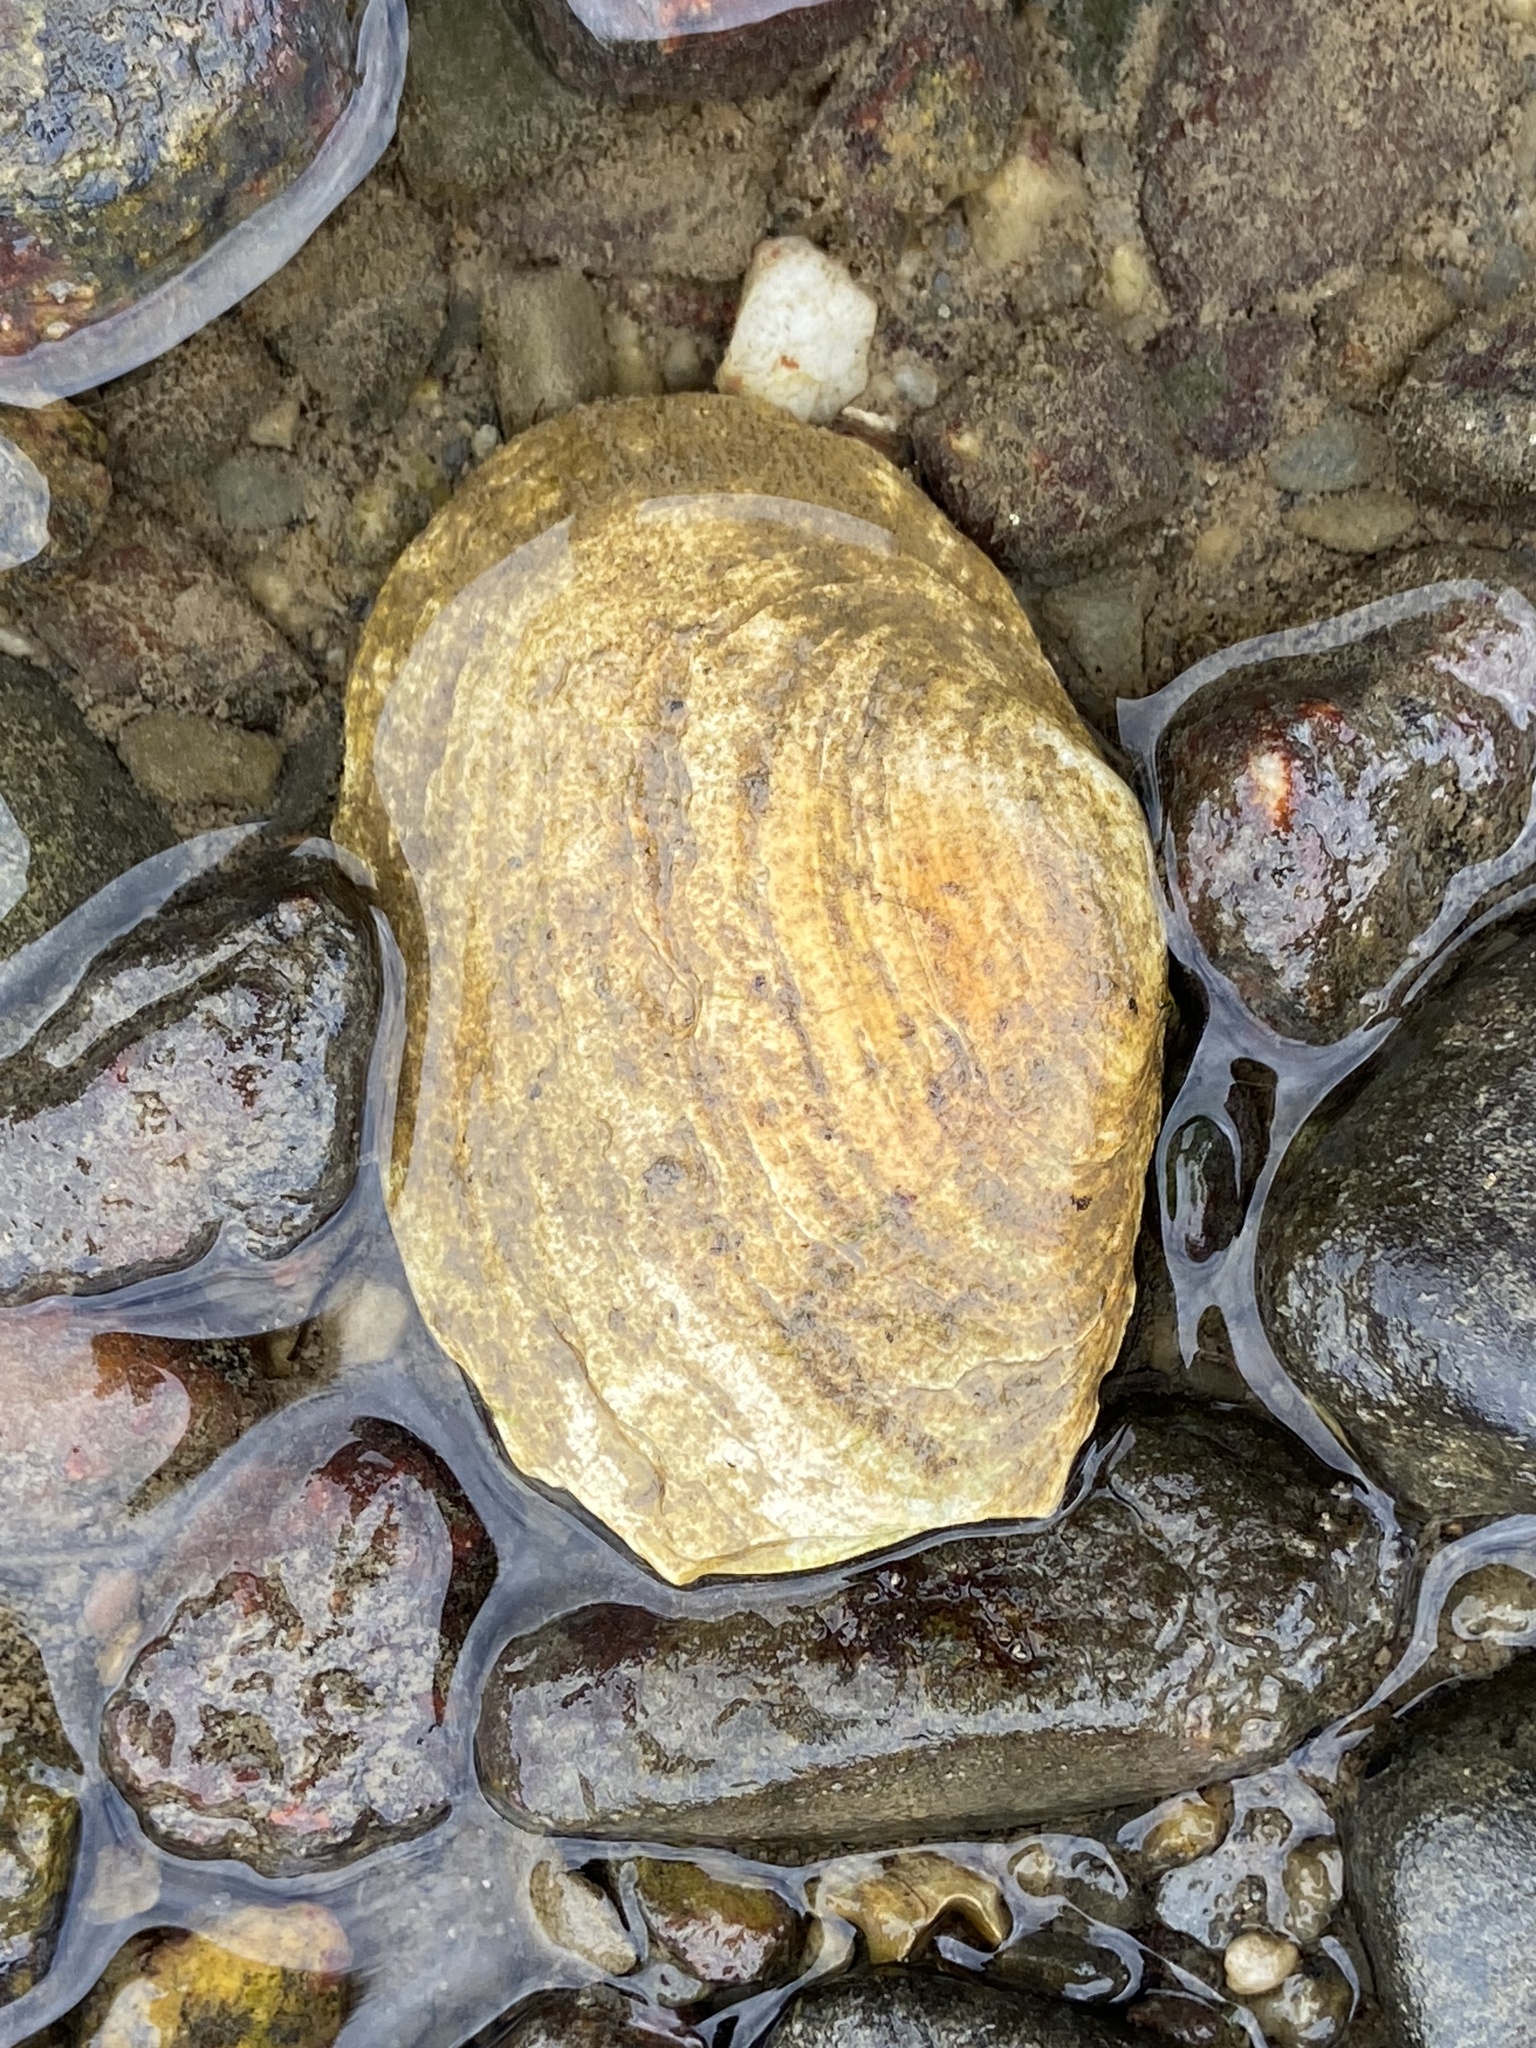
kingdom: Animalia
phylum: Mollusca
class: Bivalvia
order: Myida
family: Myidae
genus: Mya
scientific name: Mya arenaria
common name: Soft-shelled clam
